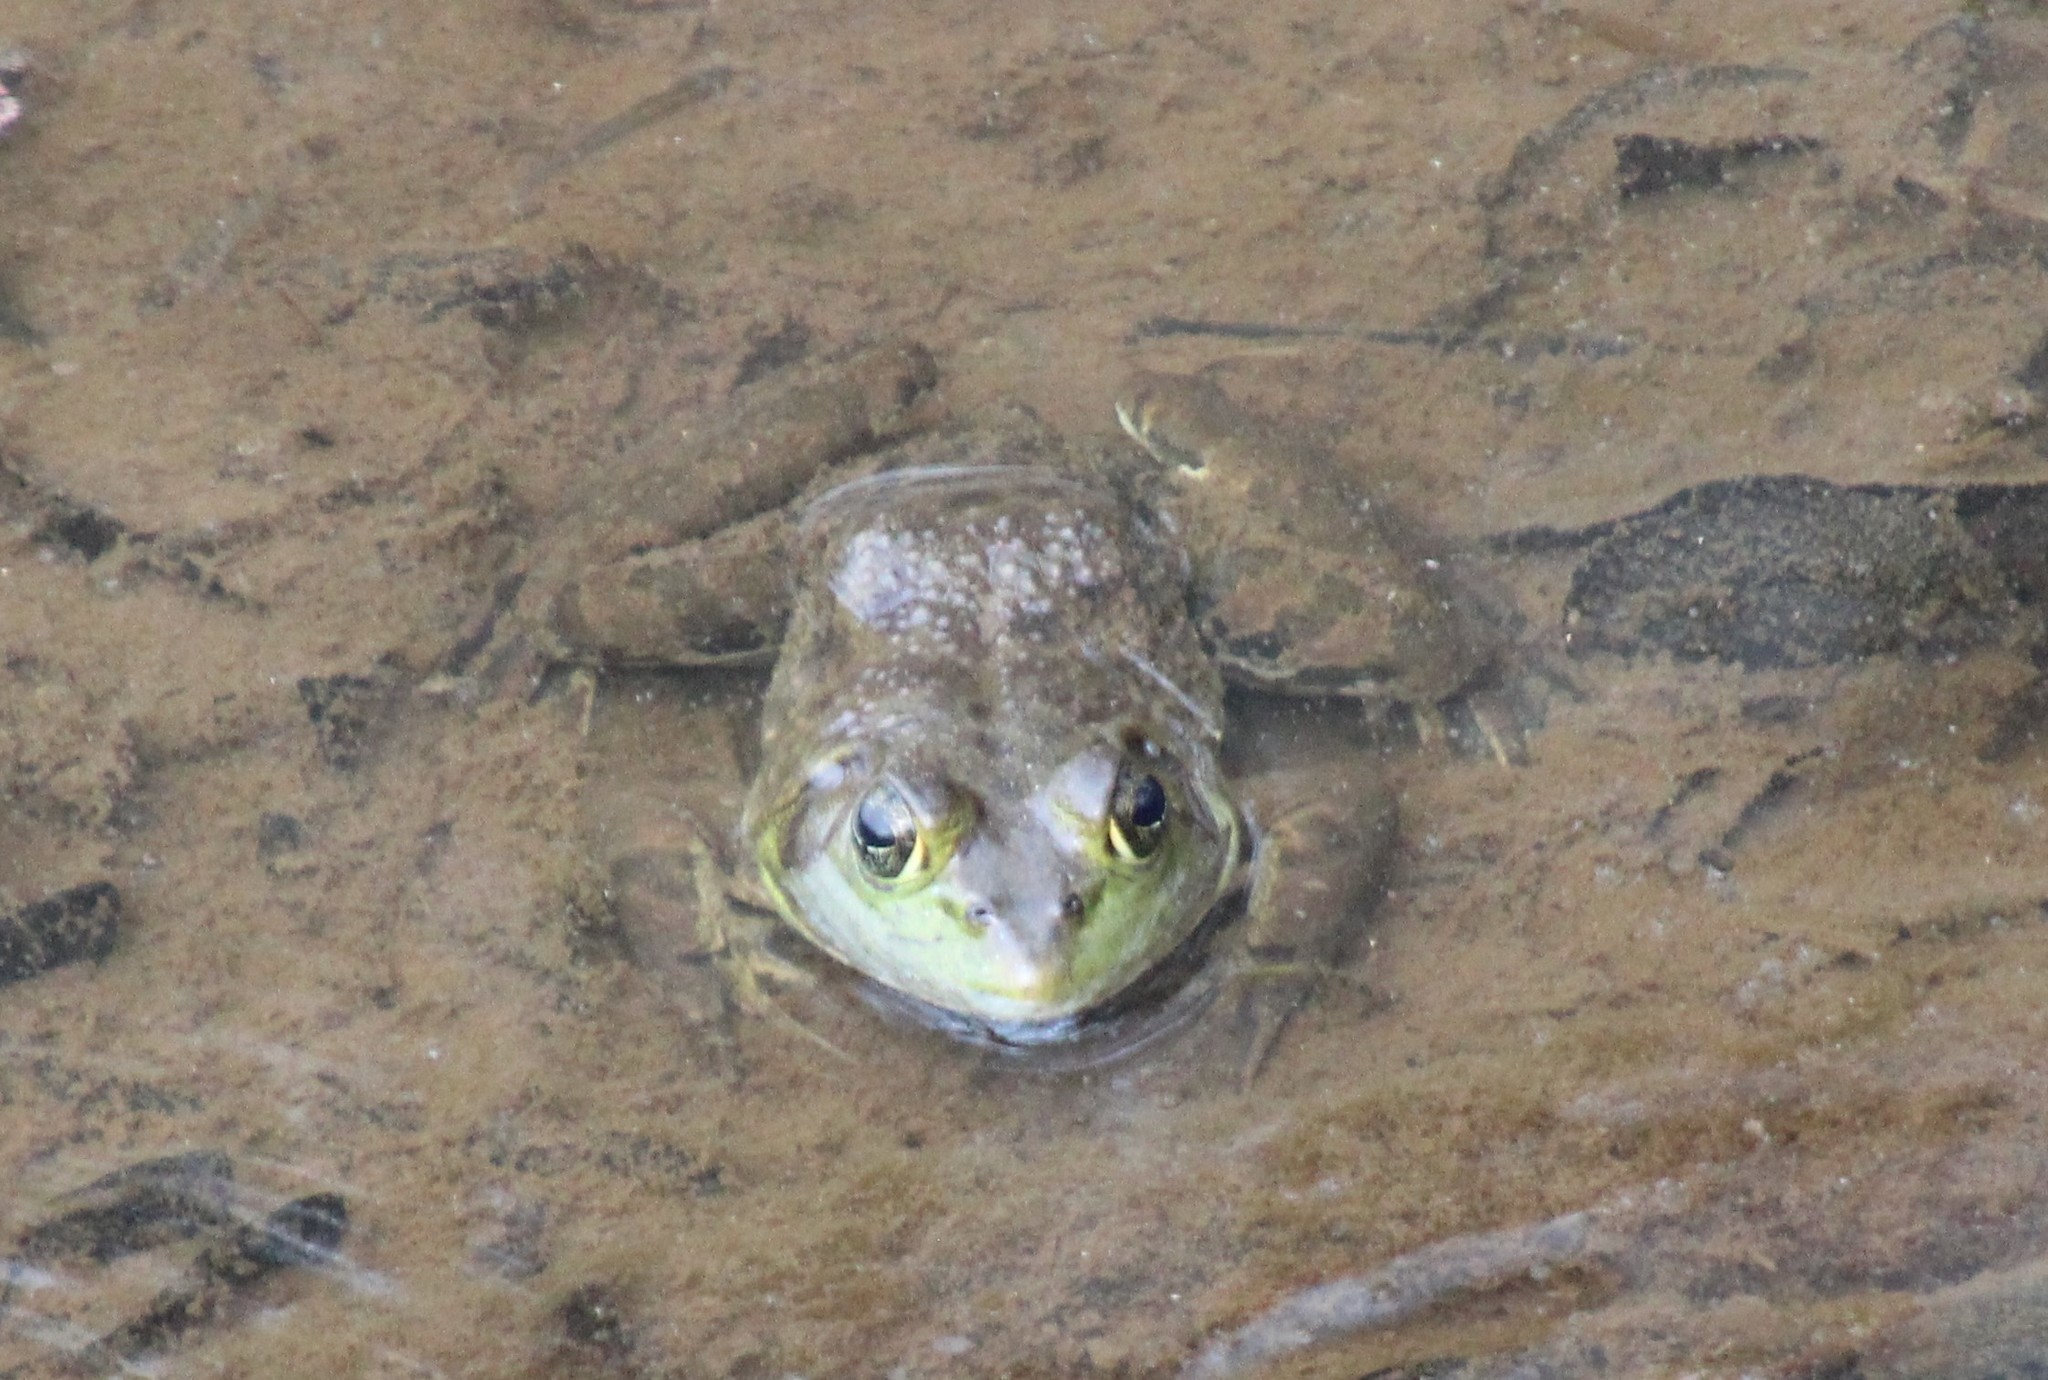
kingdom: Animalia
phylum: Chordata
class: Amphibia
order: Anura
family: Ranidae
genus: Lithobates
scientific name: Lithobates catesbeianus
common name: American bullfrog
